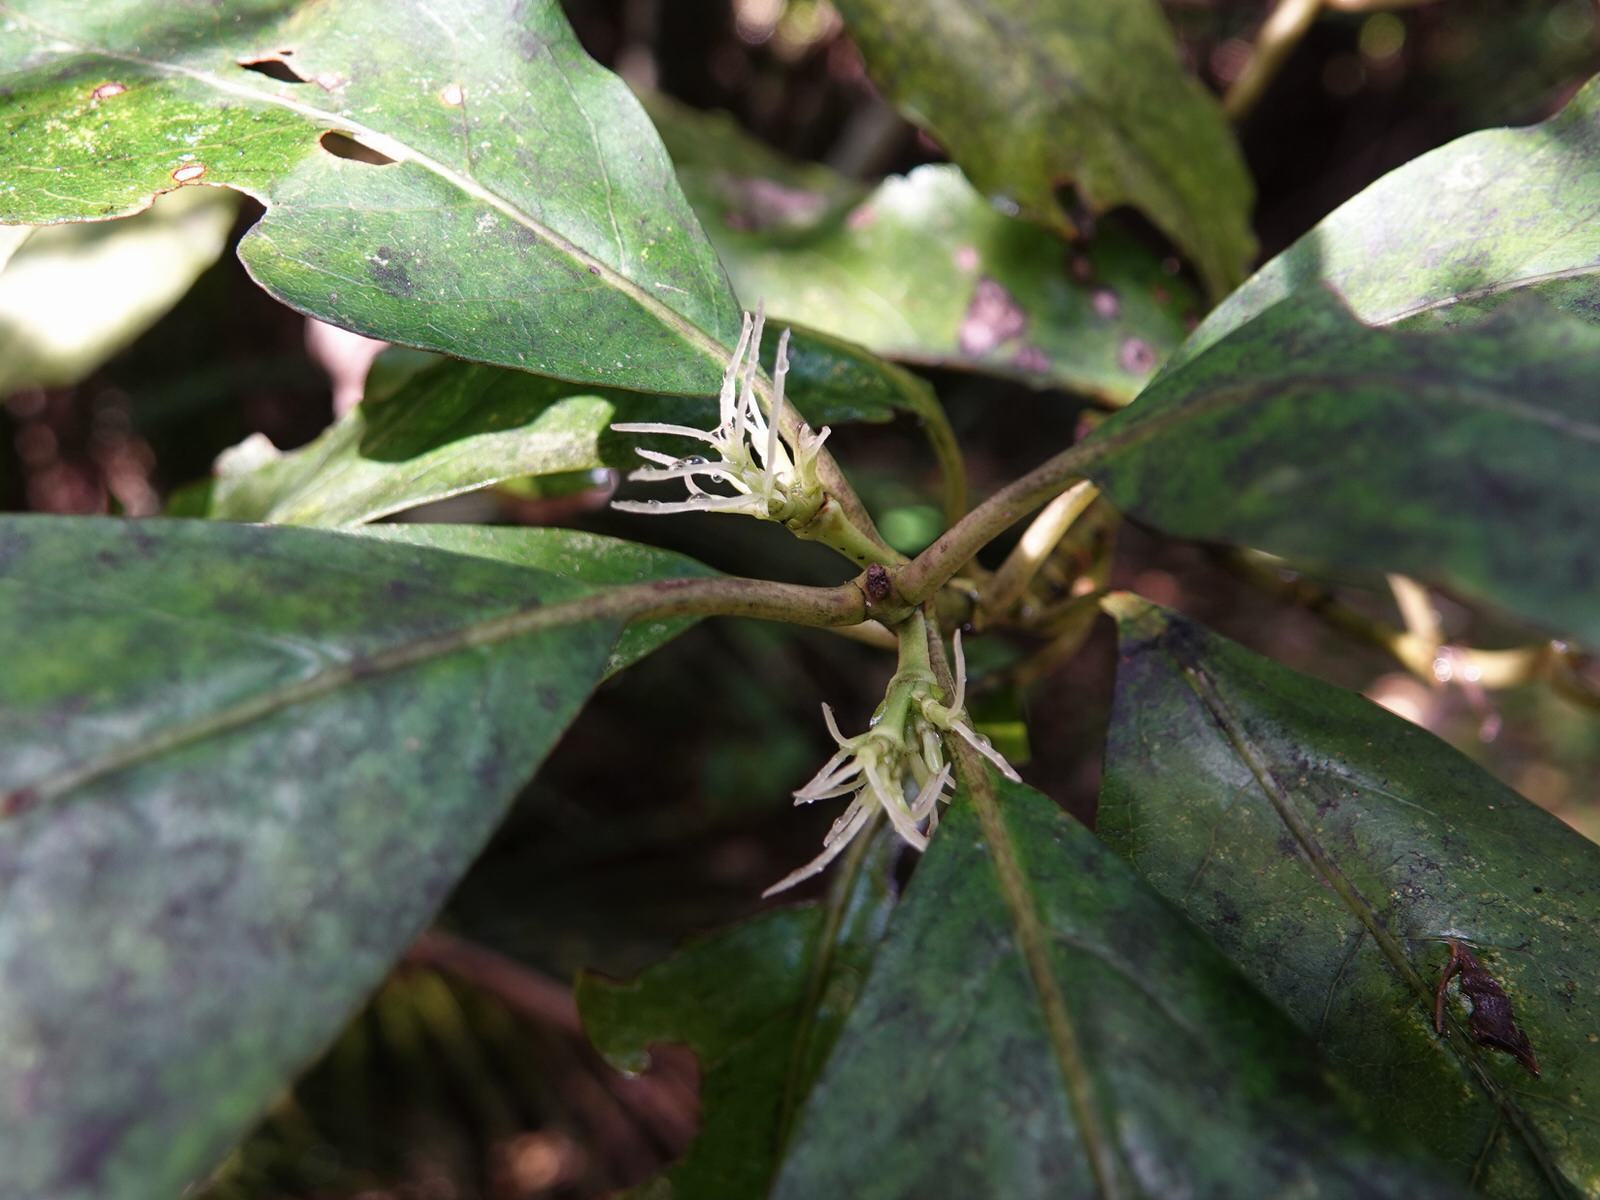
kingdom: Plantae
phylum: Tracheophyta
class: Magnoliopsida
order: Gentianales
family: Rubiaceae
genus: Coprosma
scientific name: Coprosma autumnalis
